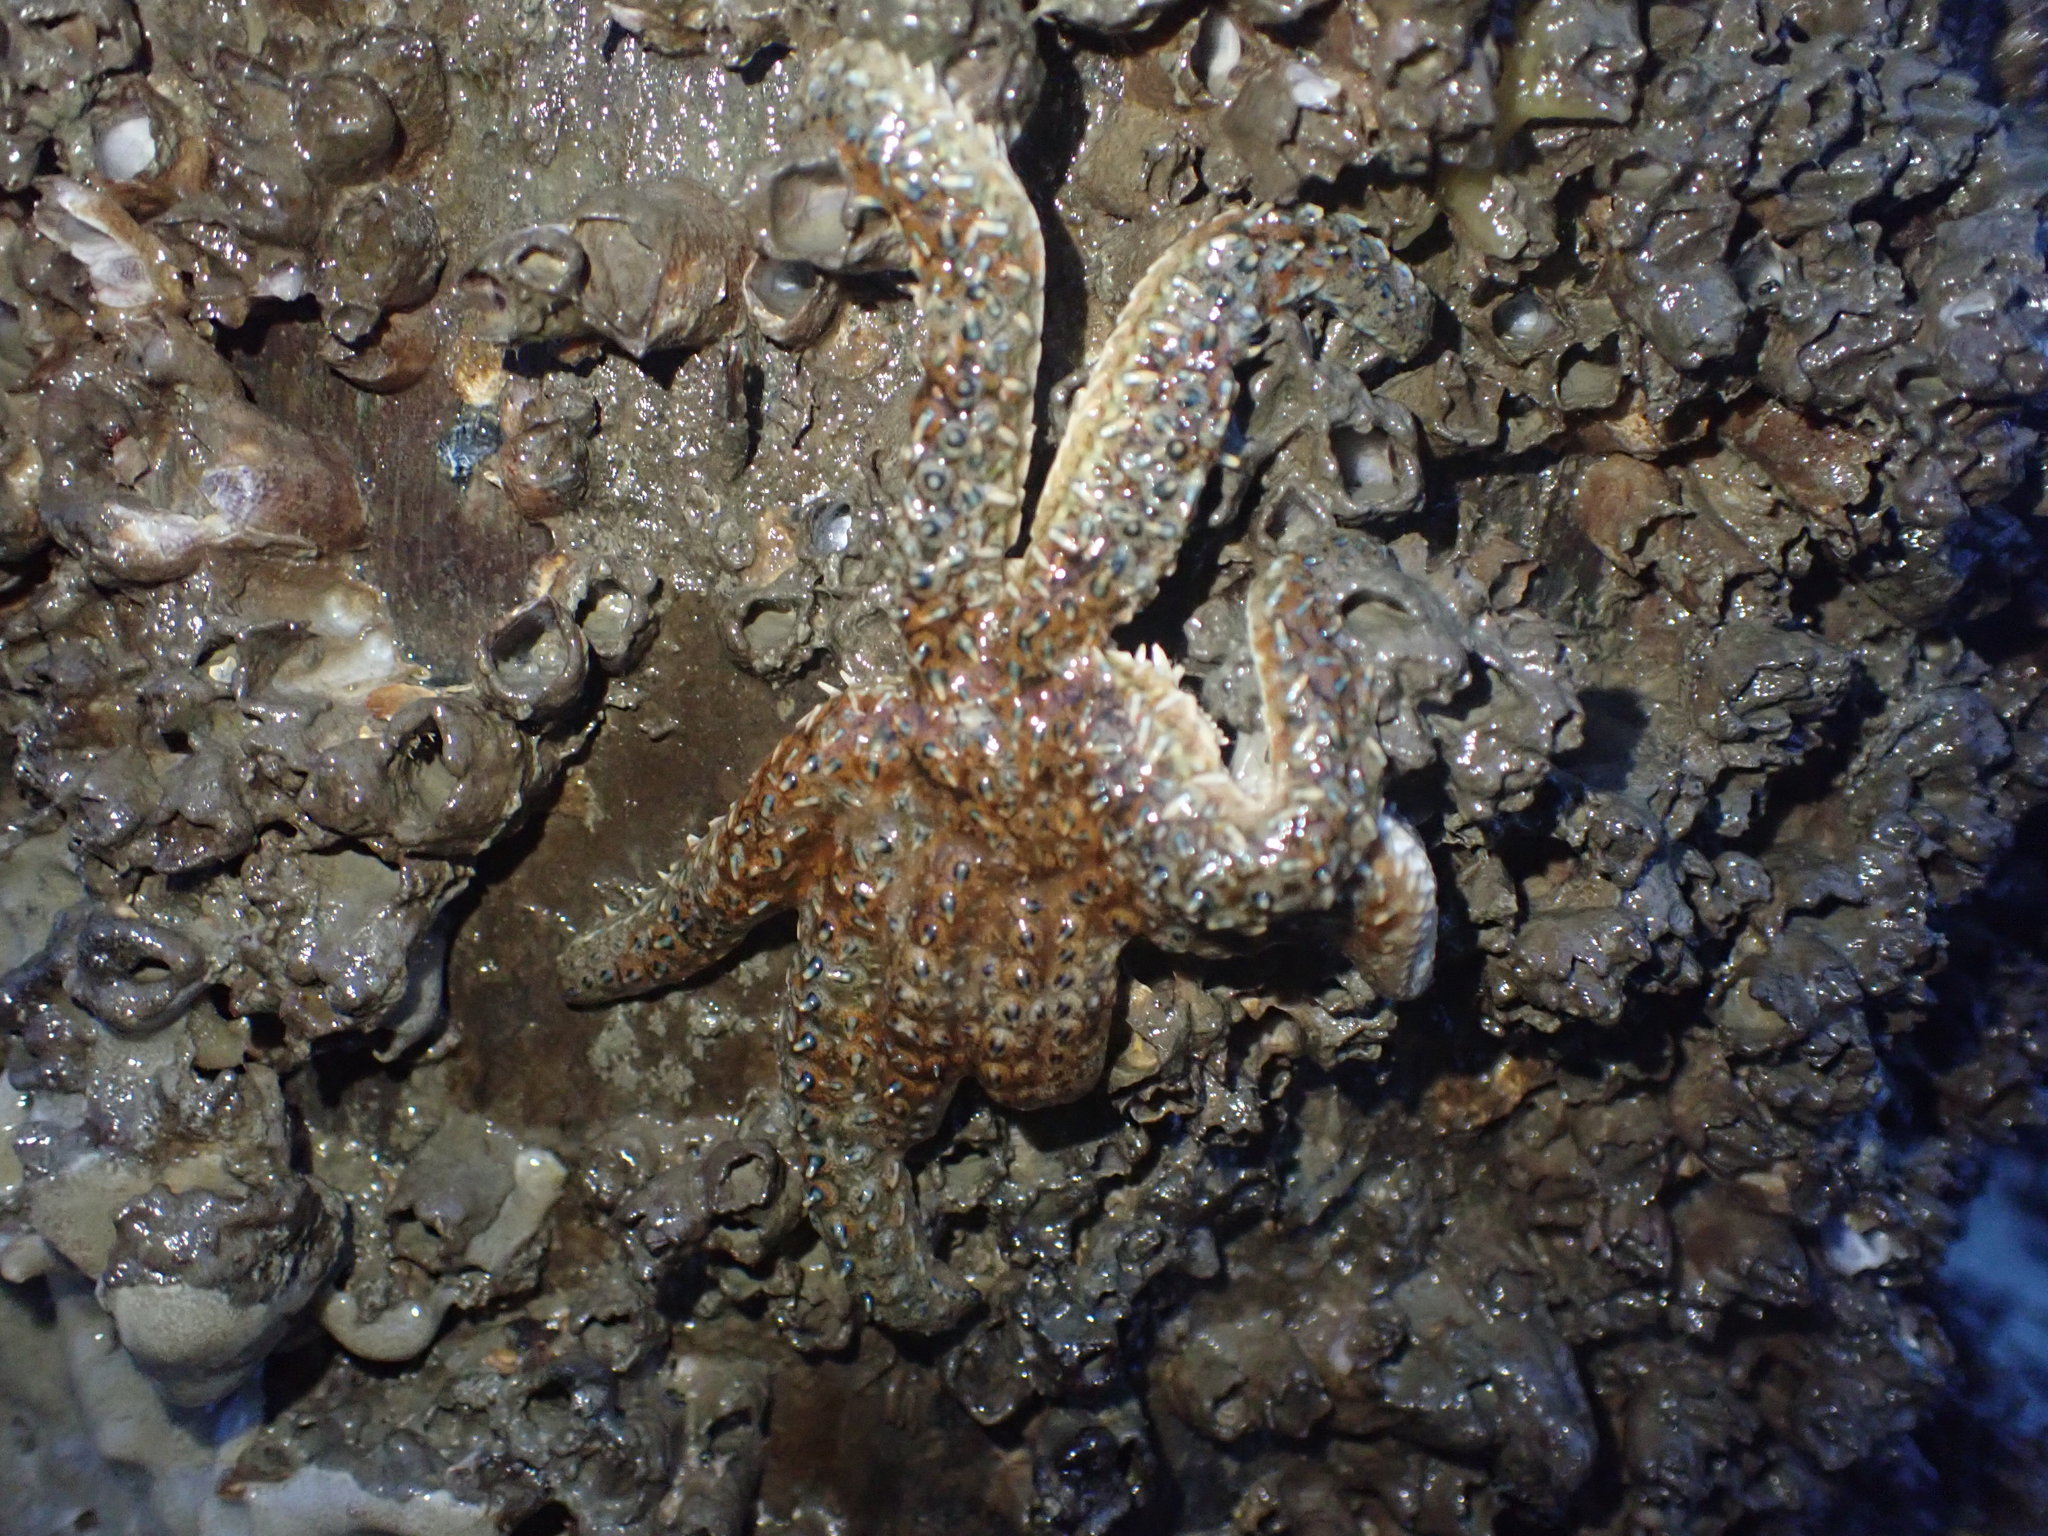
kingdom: Animalia
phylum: Echinodermata
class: Asteroidea
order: Forcipulatida
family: Asteriidae
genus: Coscinasterias
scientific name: Coscinasterias muricata
